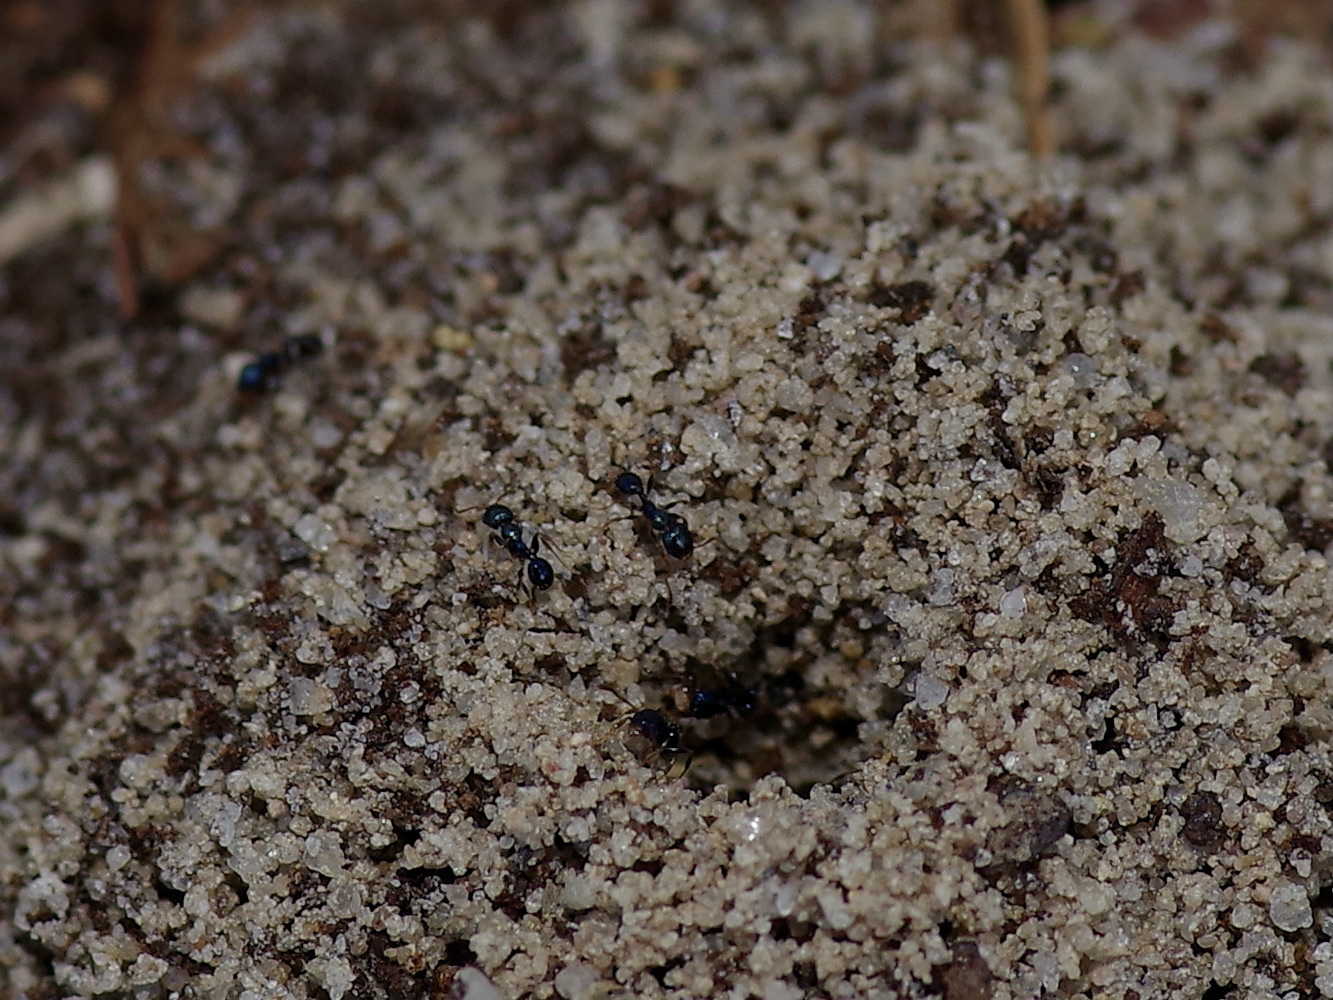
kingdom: Animalia
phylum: Arthropoda
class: Insecta
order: Hymenoptera
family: Formicidae
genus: Pheidole
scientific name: Pheidole metallescens
